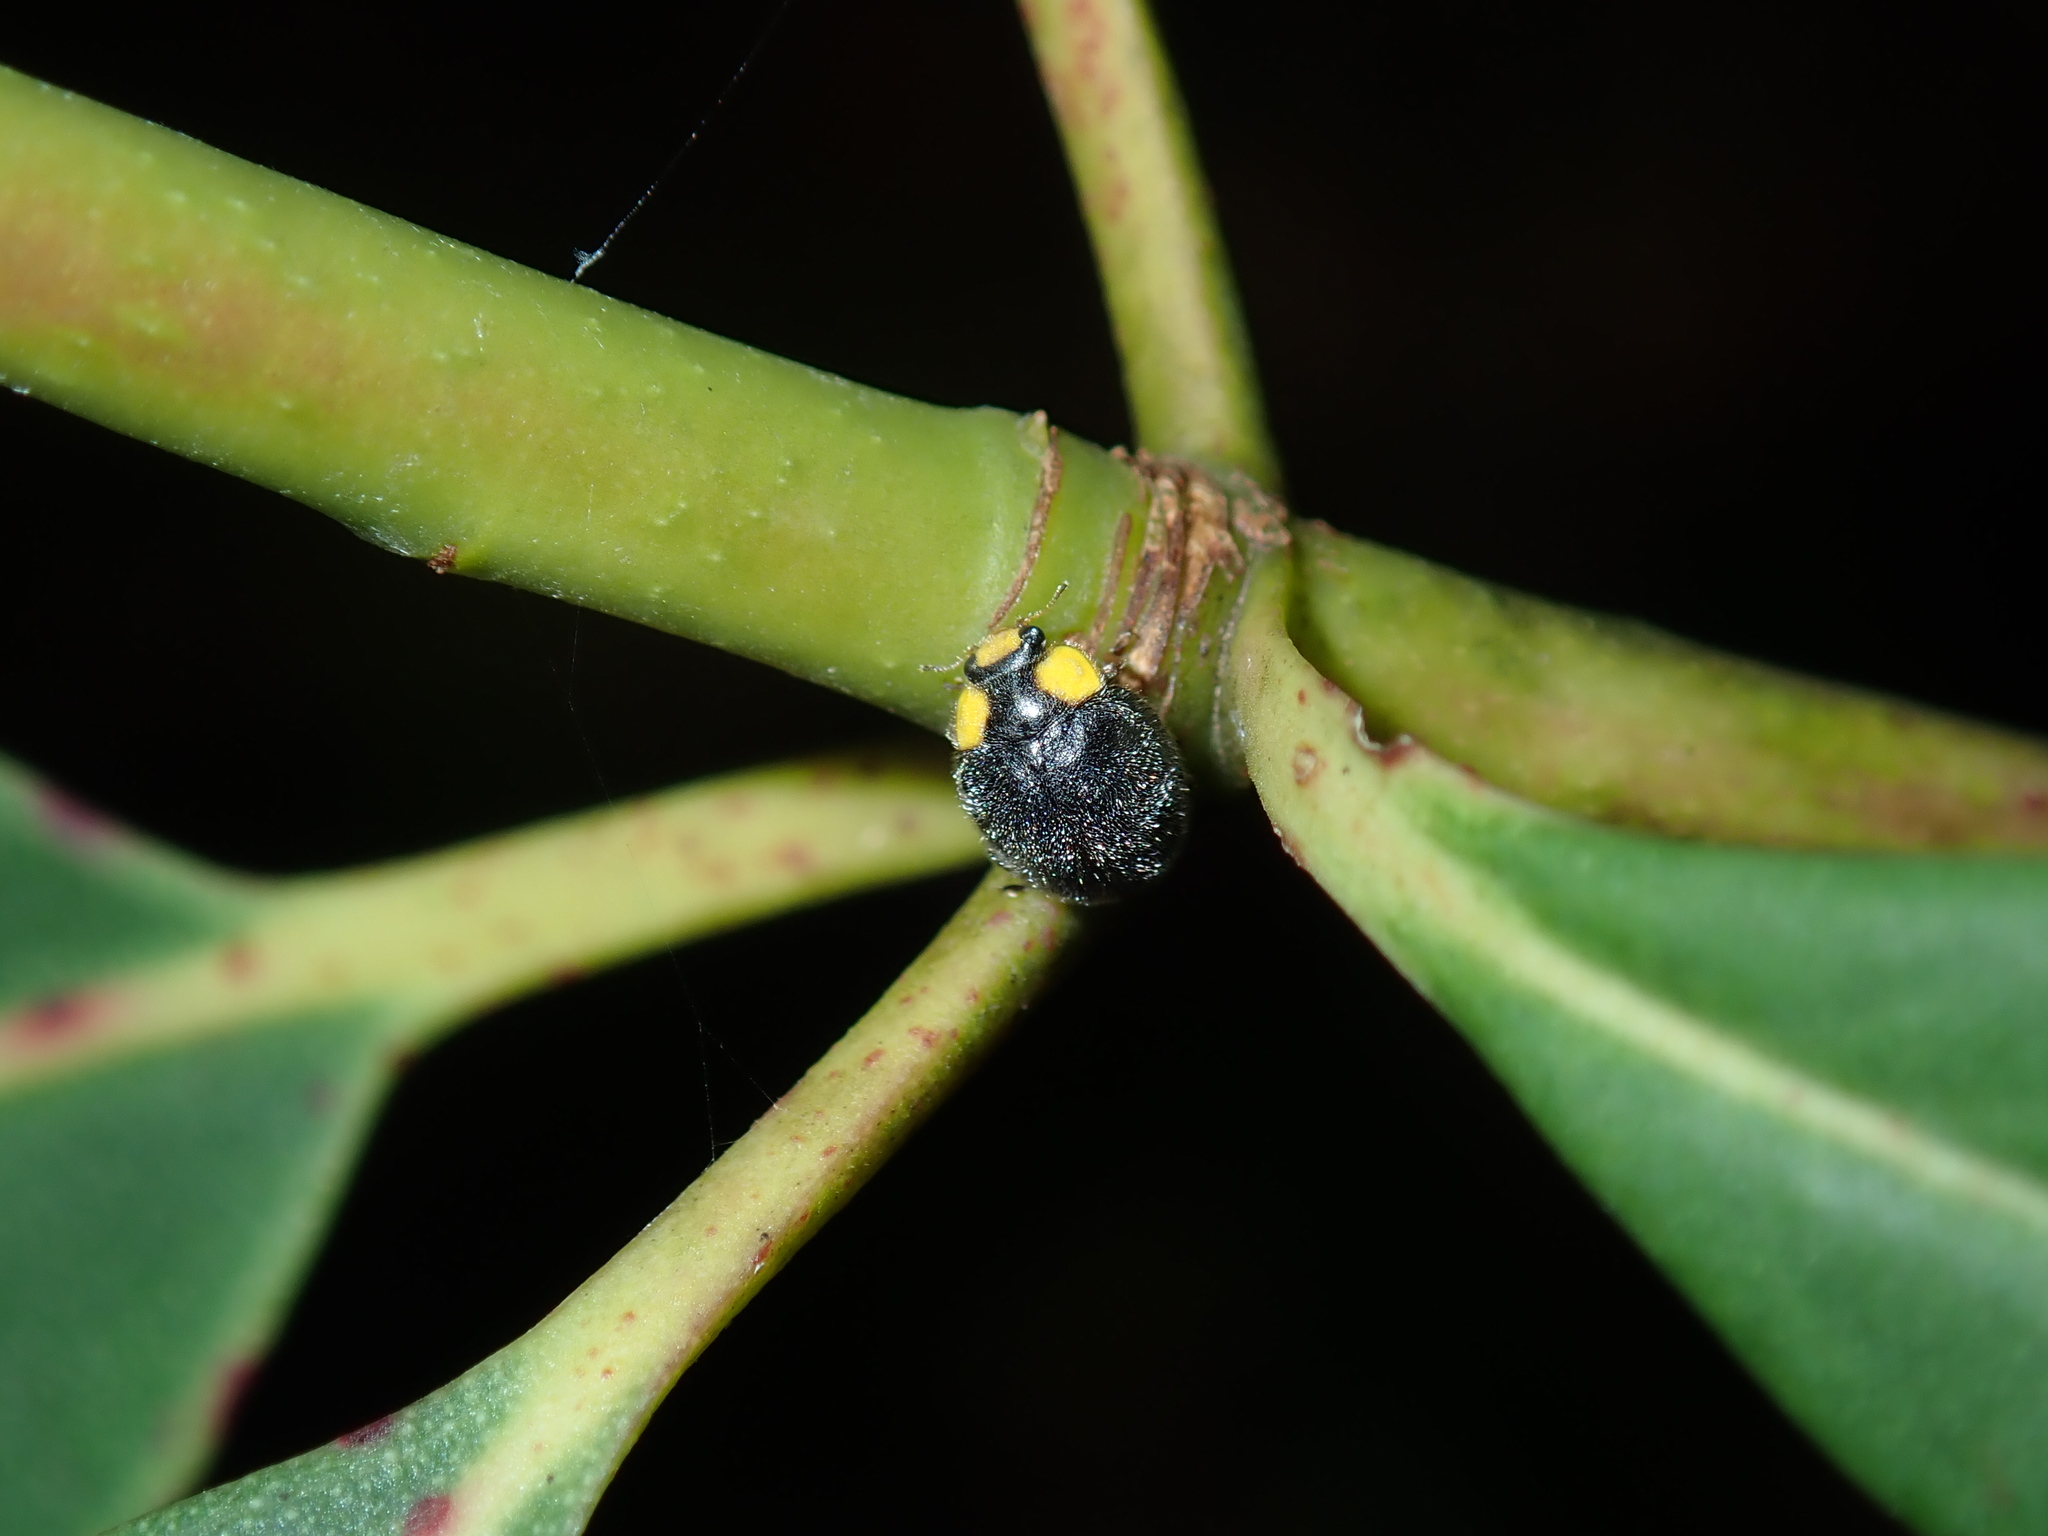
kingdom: Animalia
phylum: Arthropoda
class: Insecta
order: Coleoptera
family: Coccinellidae
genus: Scymnodes
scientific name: Scymnodes lividigaster
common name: Yellowshouldered lady beetle
